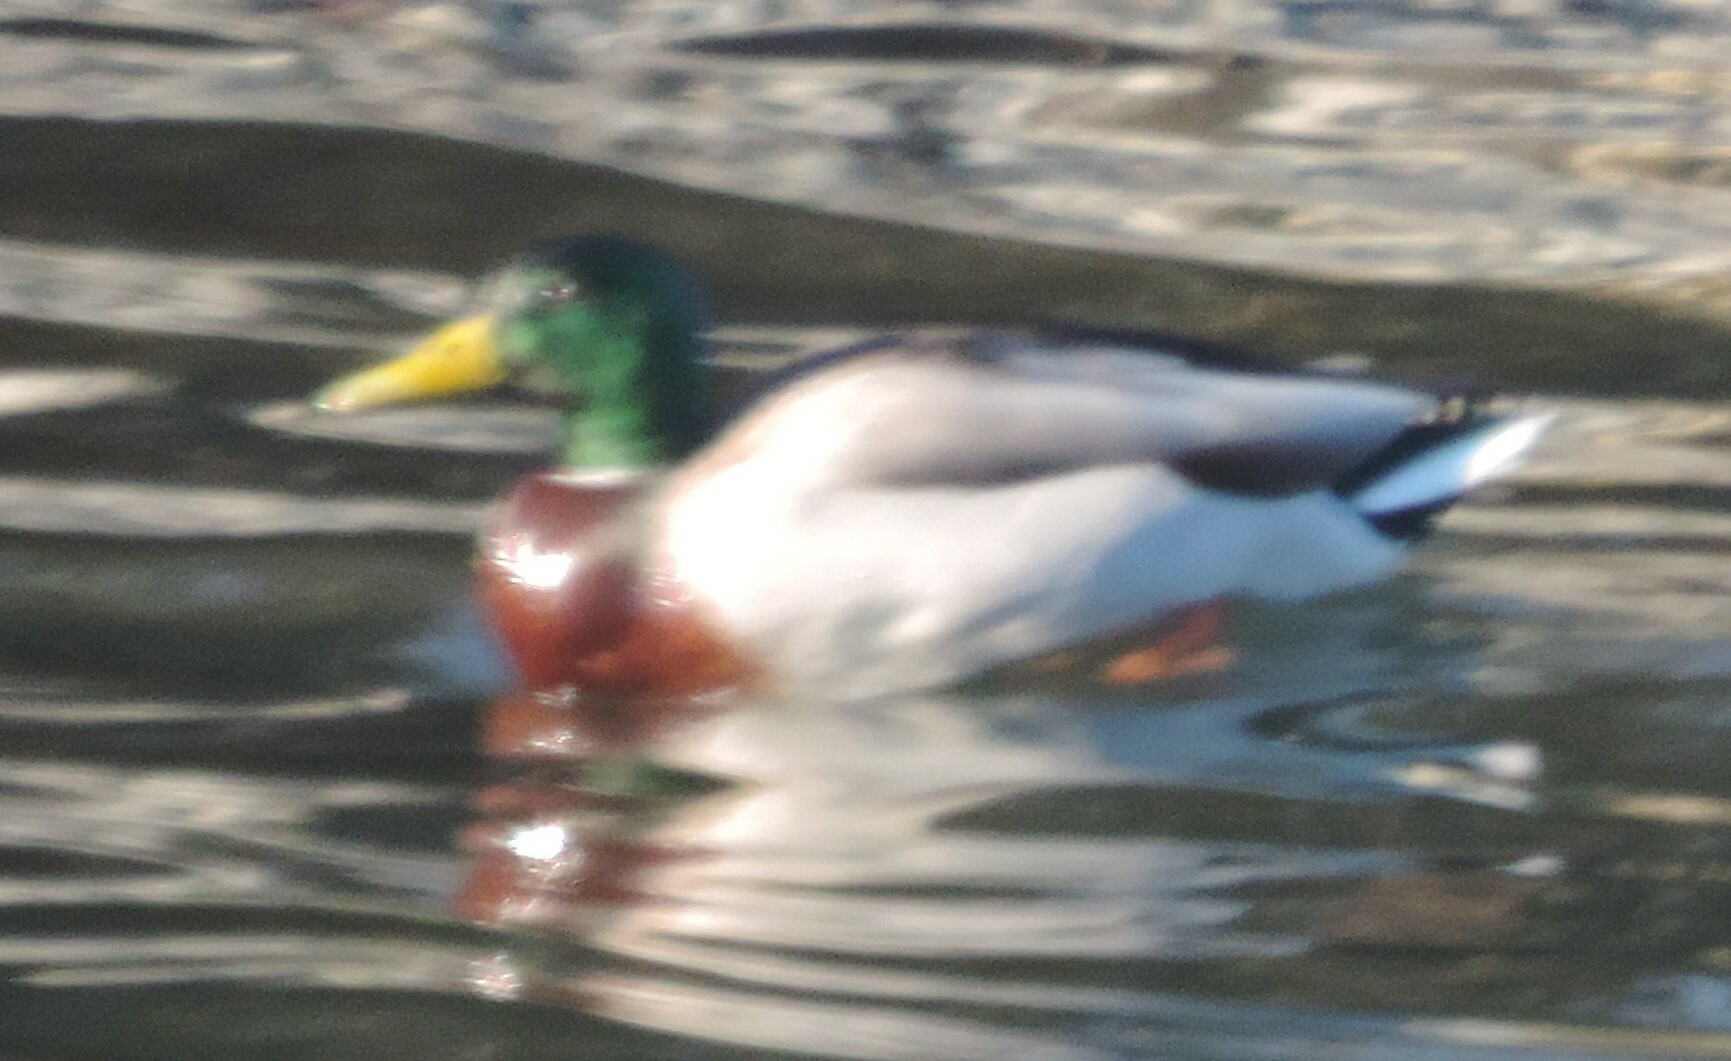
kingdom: Animalia
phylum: Chordata
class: Aves
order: Anseriformes
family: Anatidae
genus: Anas
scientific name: Anas platyrhynchos
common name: Mallard
